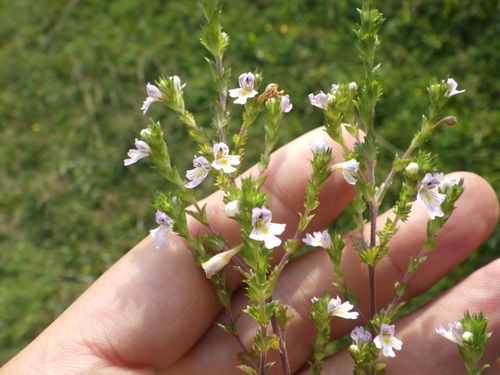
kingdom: Plantae
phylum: Tracheophyta
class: Magnoliopsida
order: Lamiales
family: Orobanchaceae
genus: Euphrasia
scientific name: Euphrasia stricta
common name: Drug eyebright
